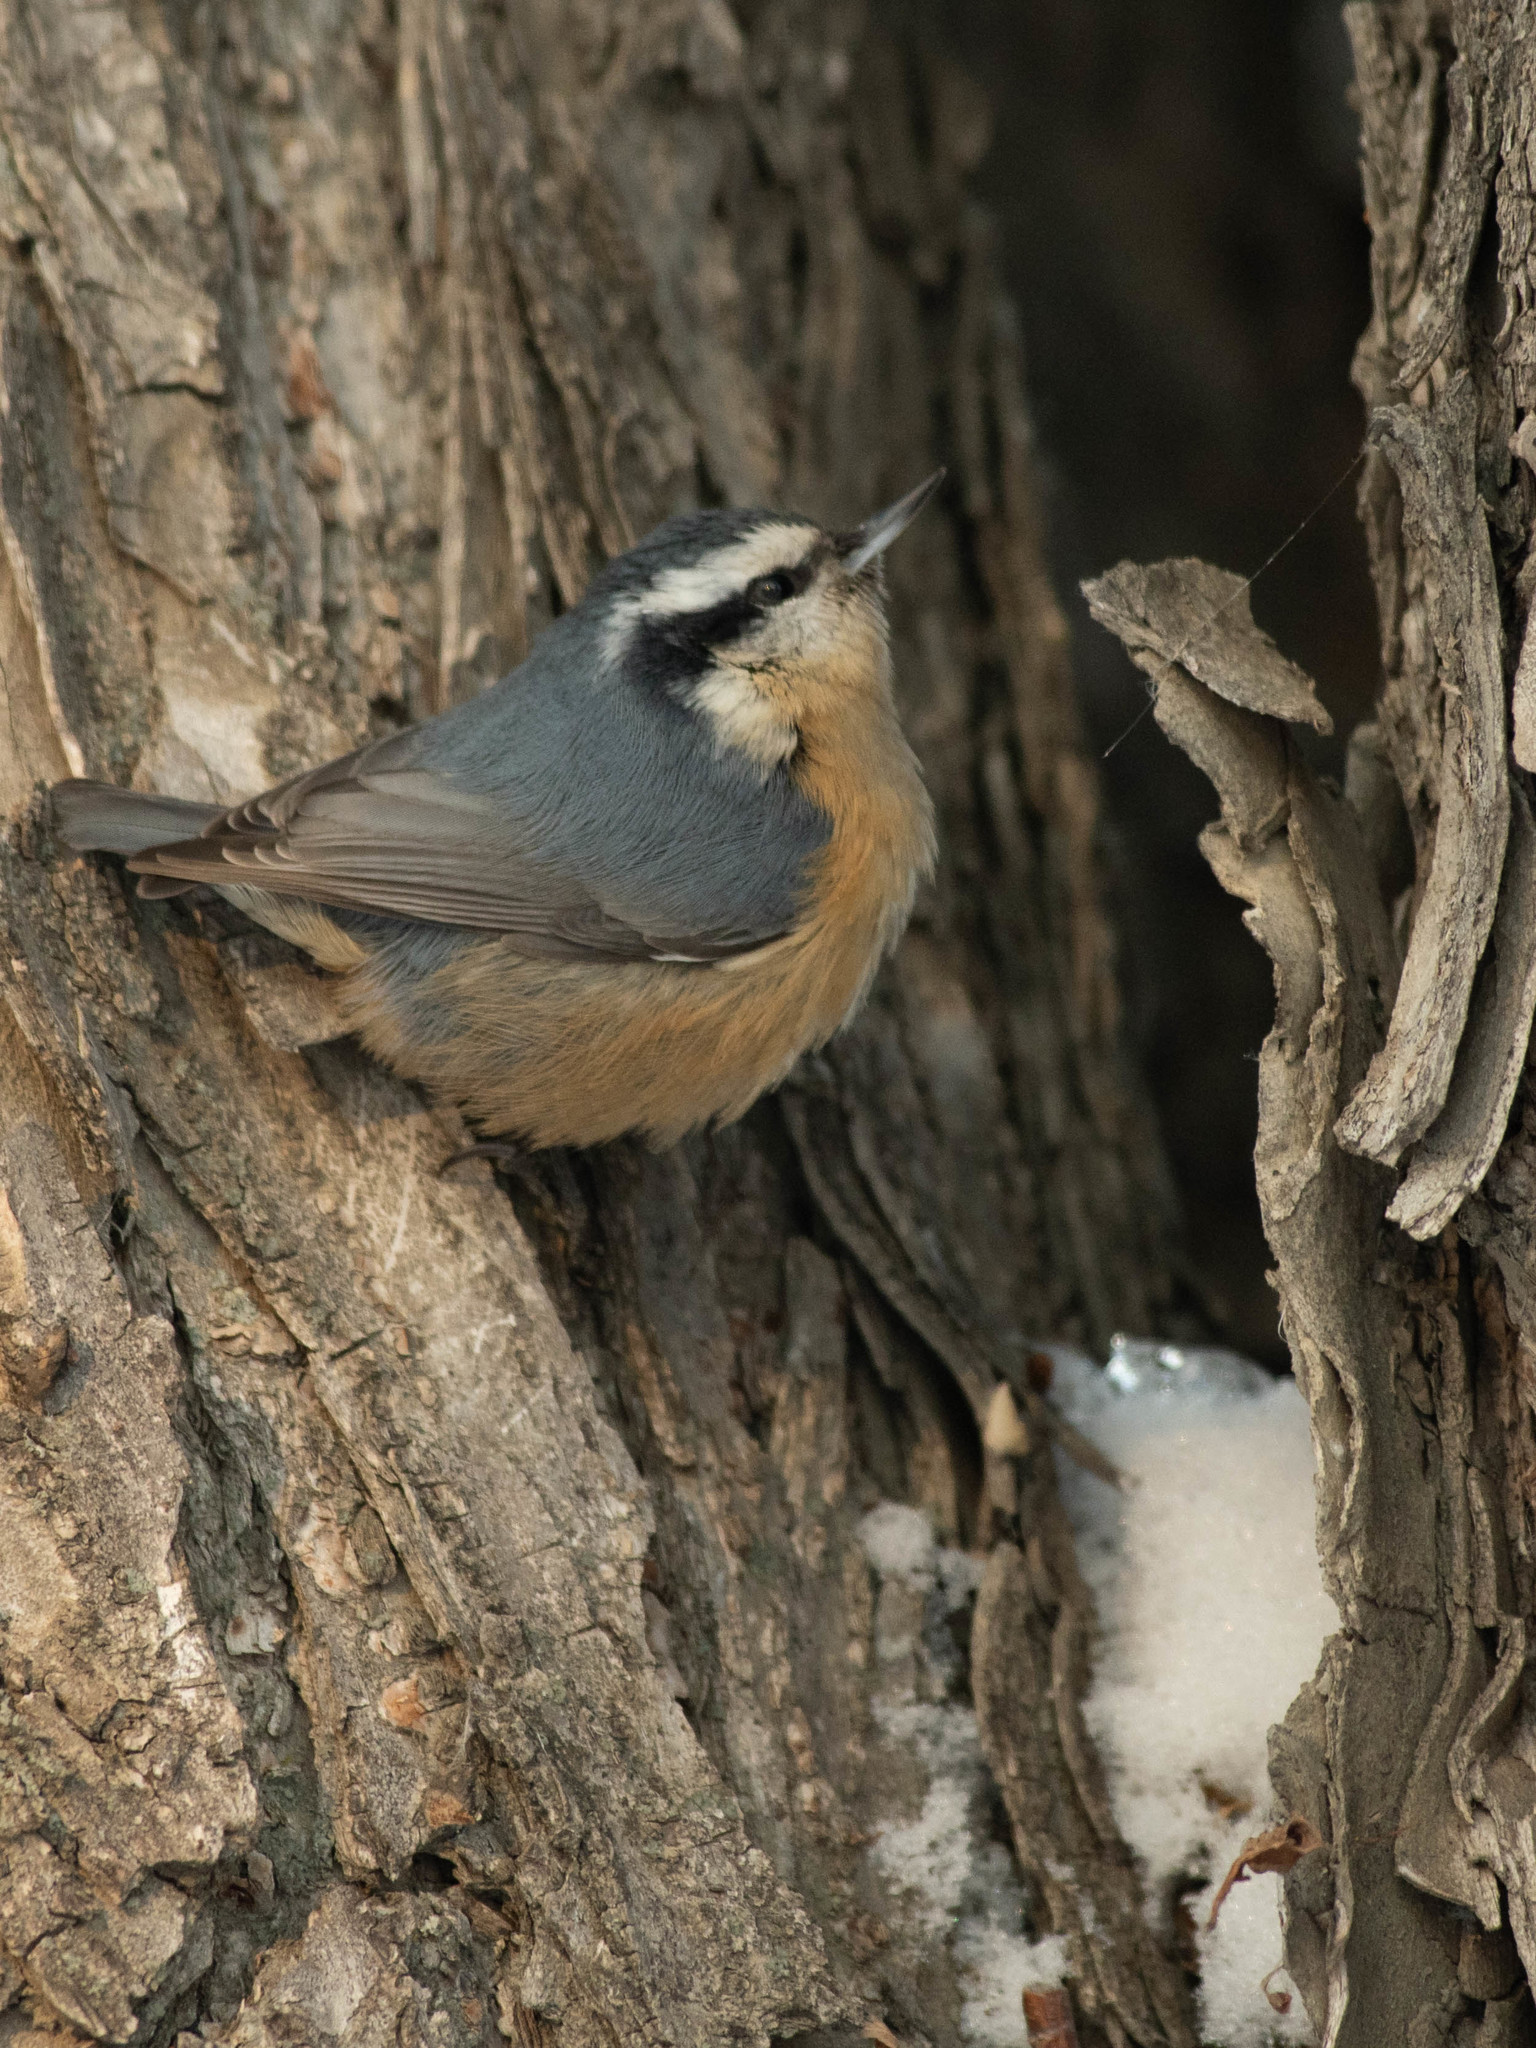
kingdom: Animalia
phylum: Chordata
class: Aves
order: Passeriformes
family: Sittidae
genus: Sitta
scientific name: Sitta canadensis
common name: Red-breasted nuthatch
